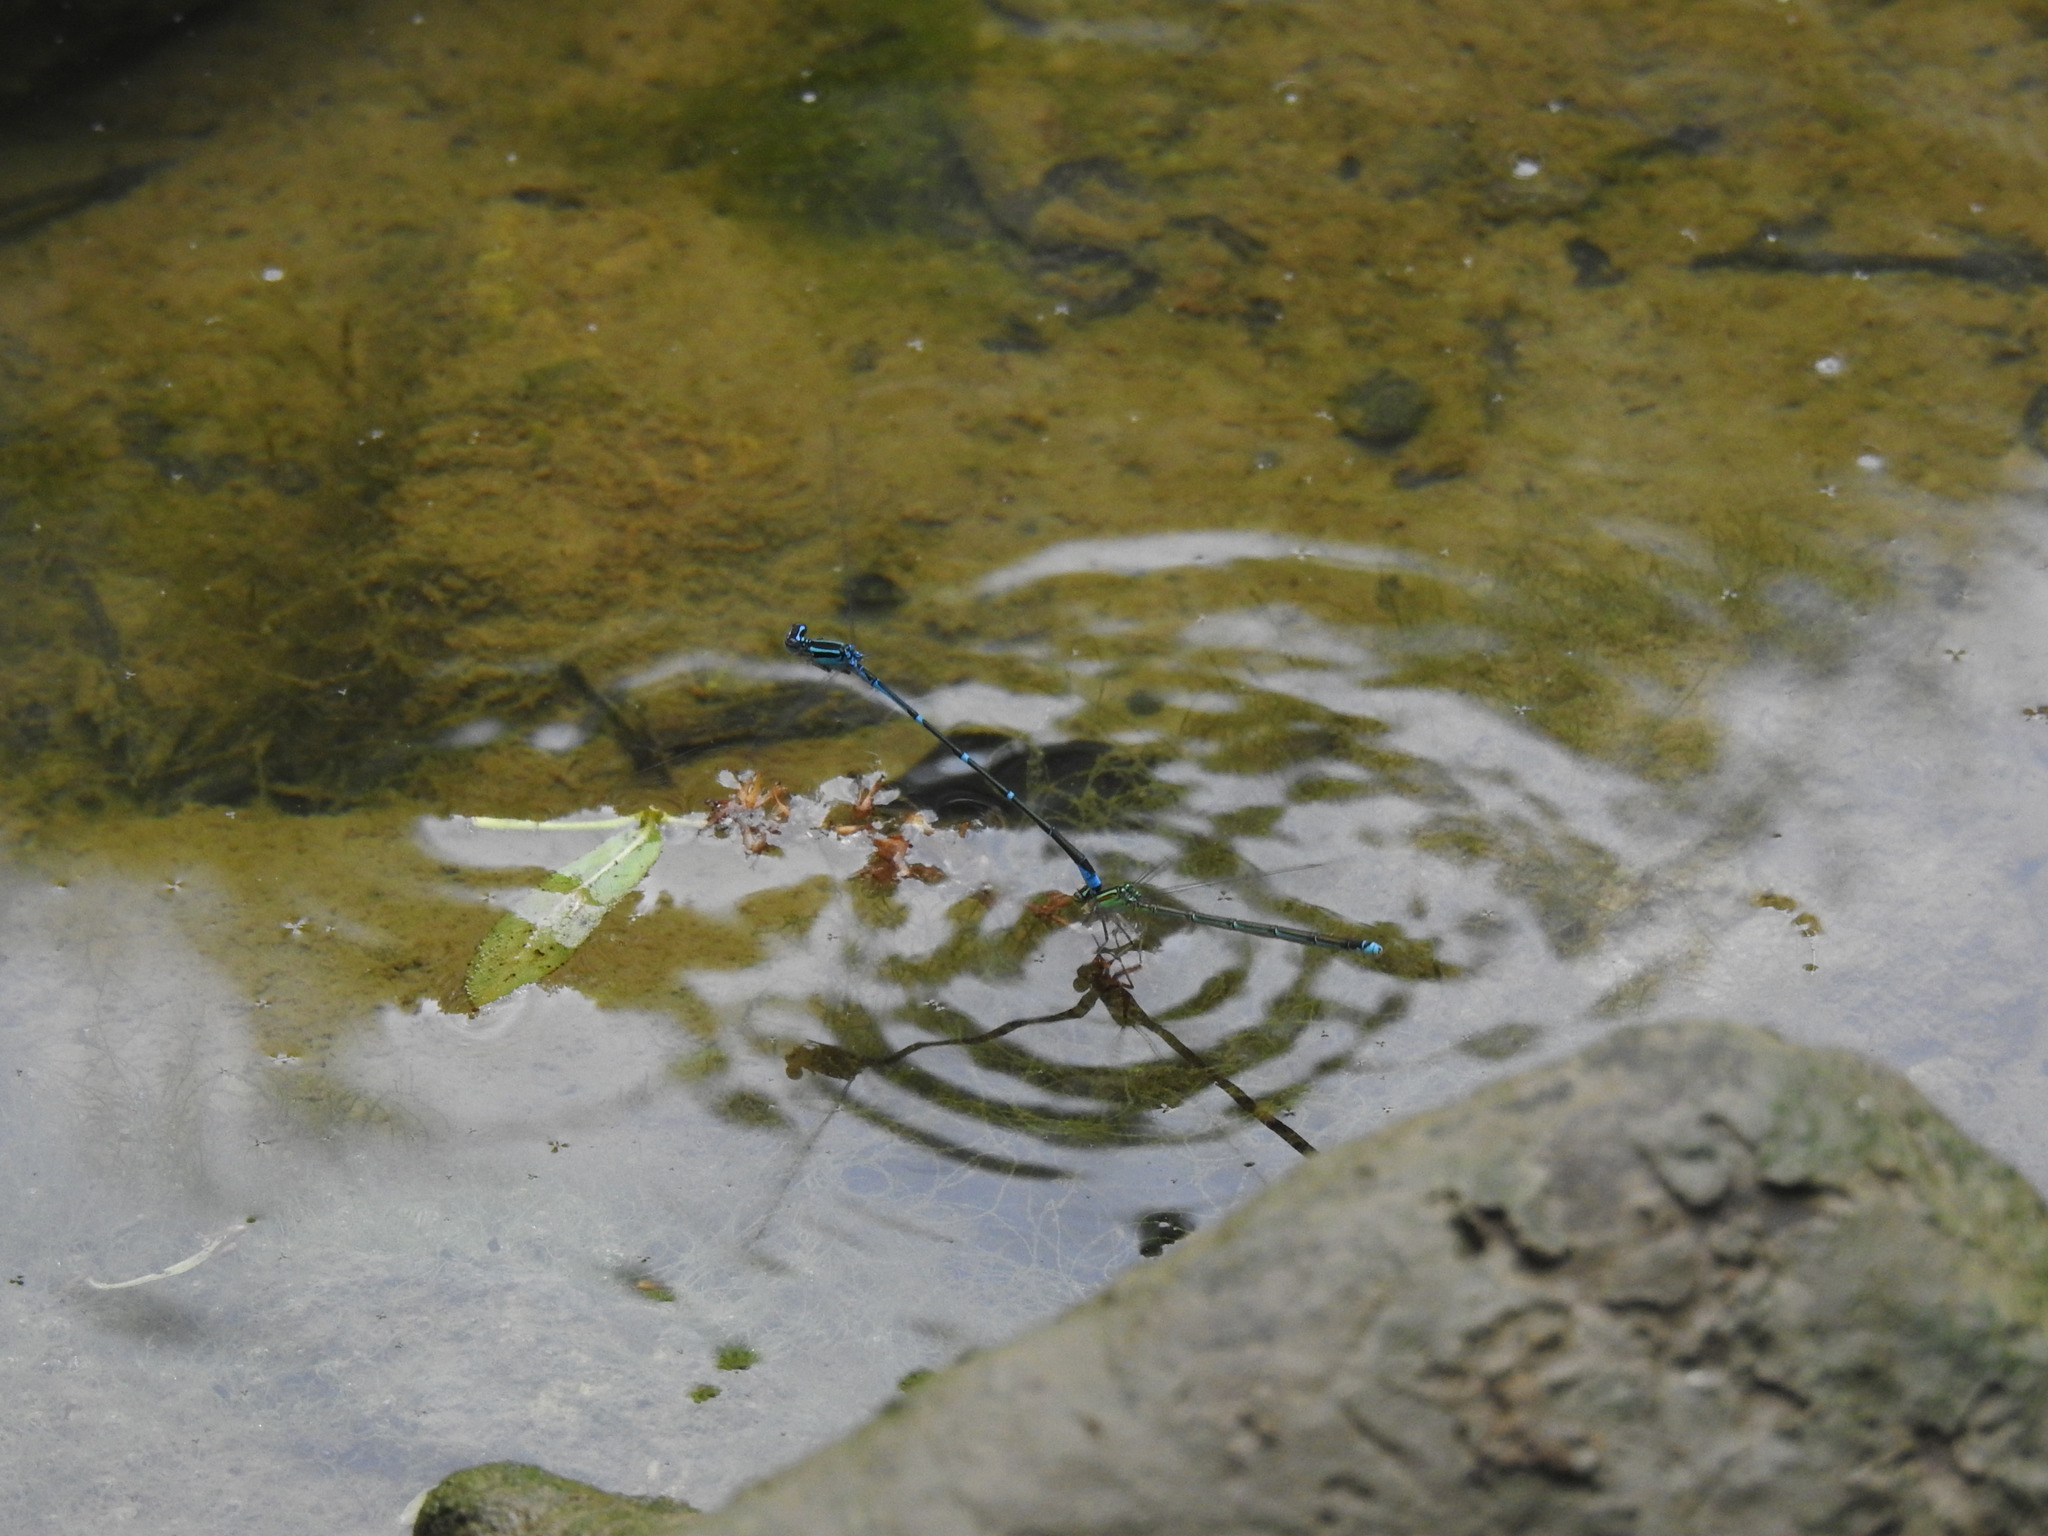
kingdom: Animalia
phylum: Arthropoda
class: Insecta
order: Odonata
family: Coenagrionidae
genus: Enallagma
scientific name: Enallagma exsulans
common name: Stream bluet
